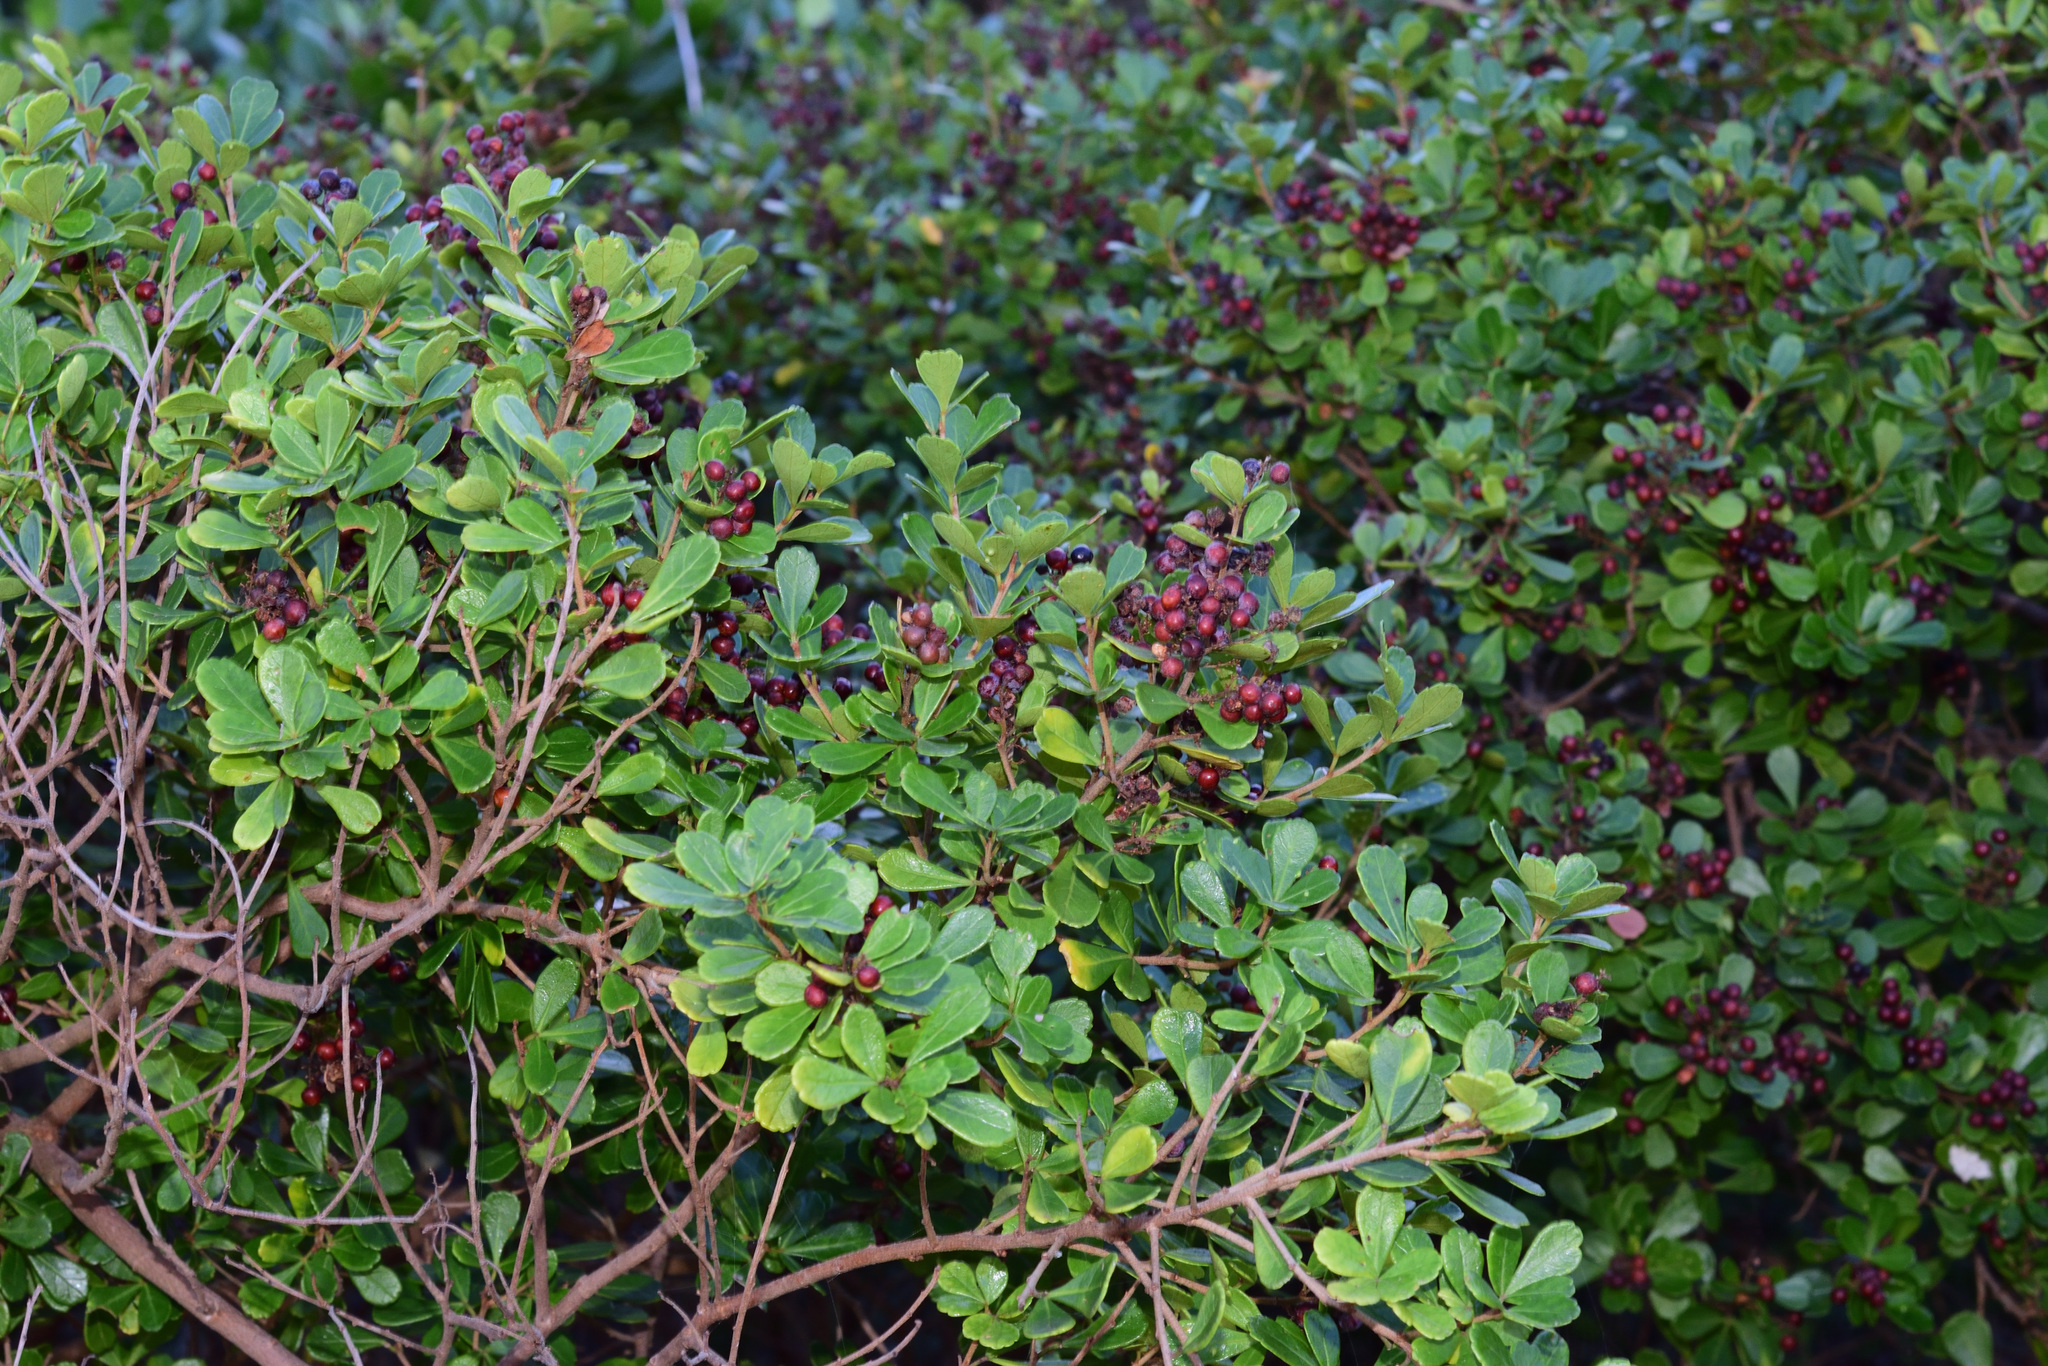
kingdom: Plantae
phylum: Tracheophyta
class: Magnoliopsida
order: Sapindales
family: Anacardiaceae
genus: Searsia
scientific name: Searsia crenata
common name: Crowberry
